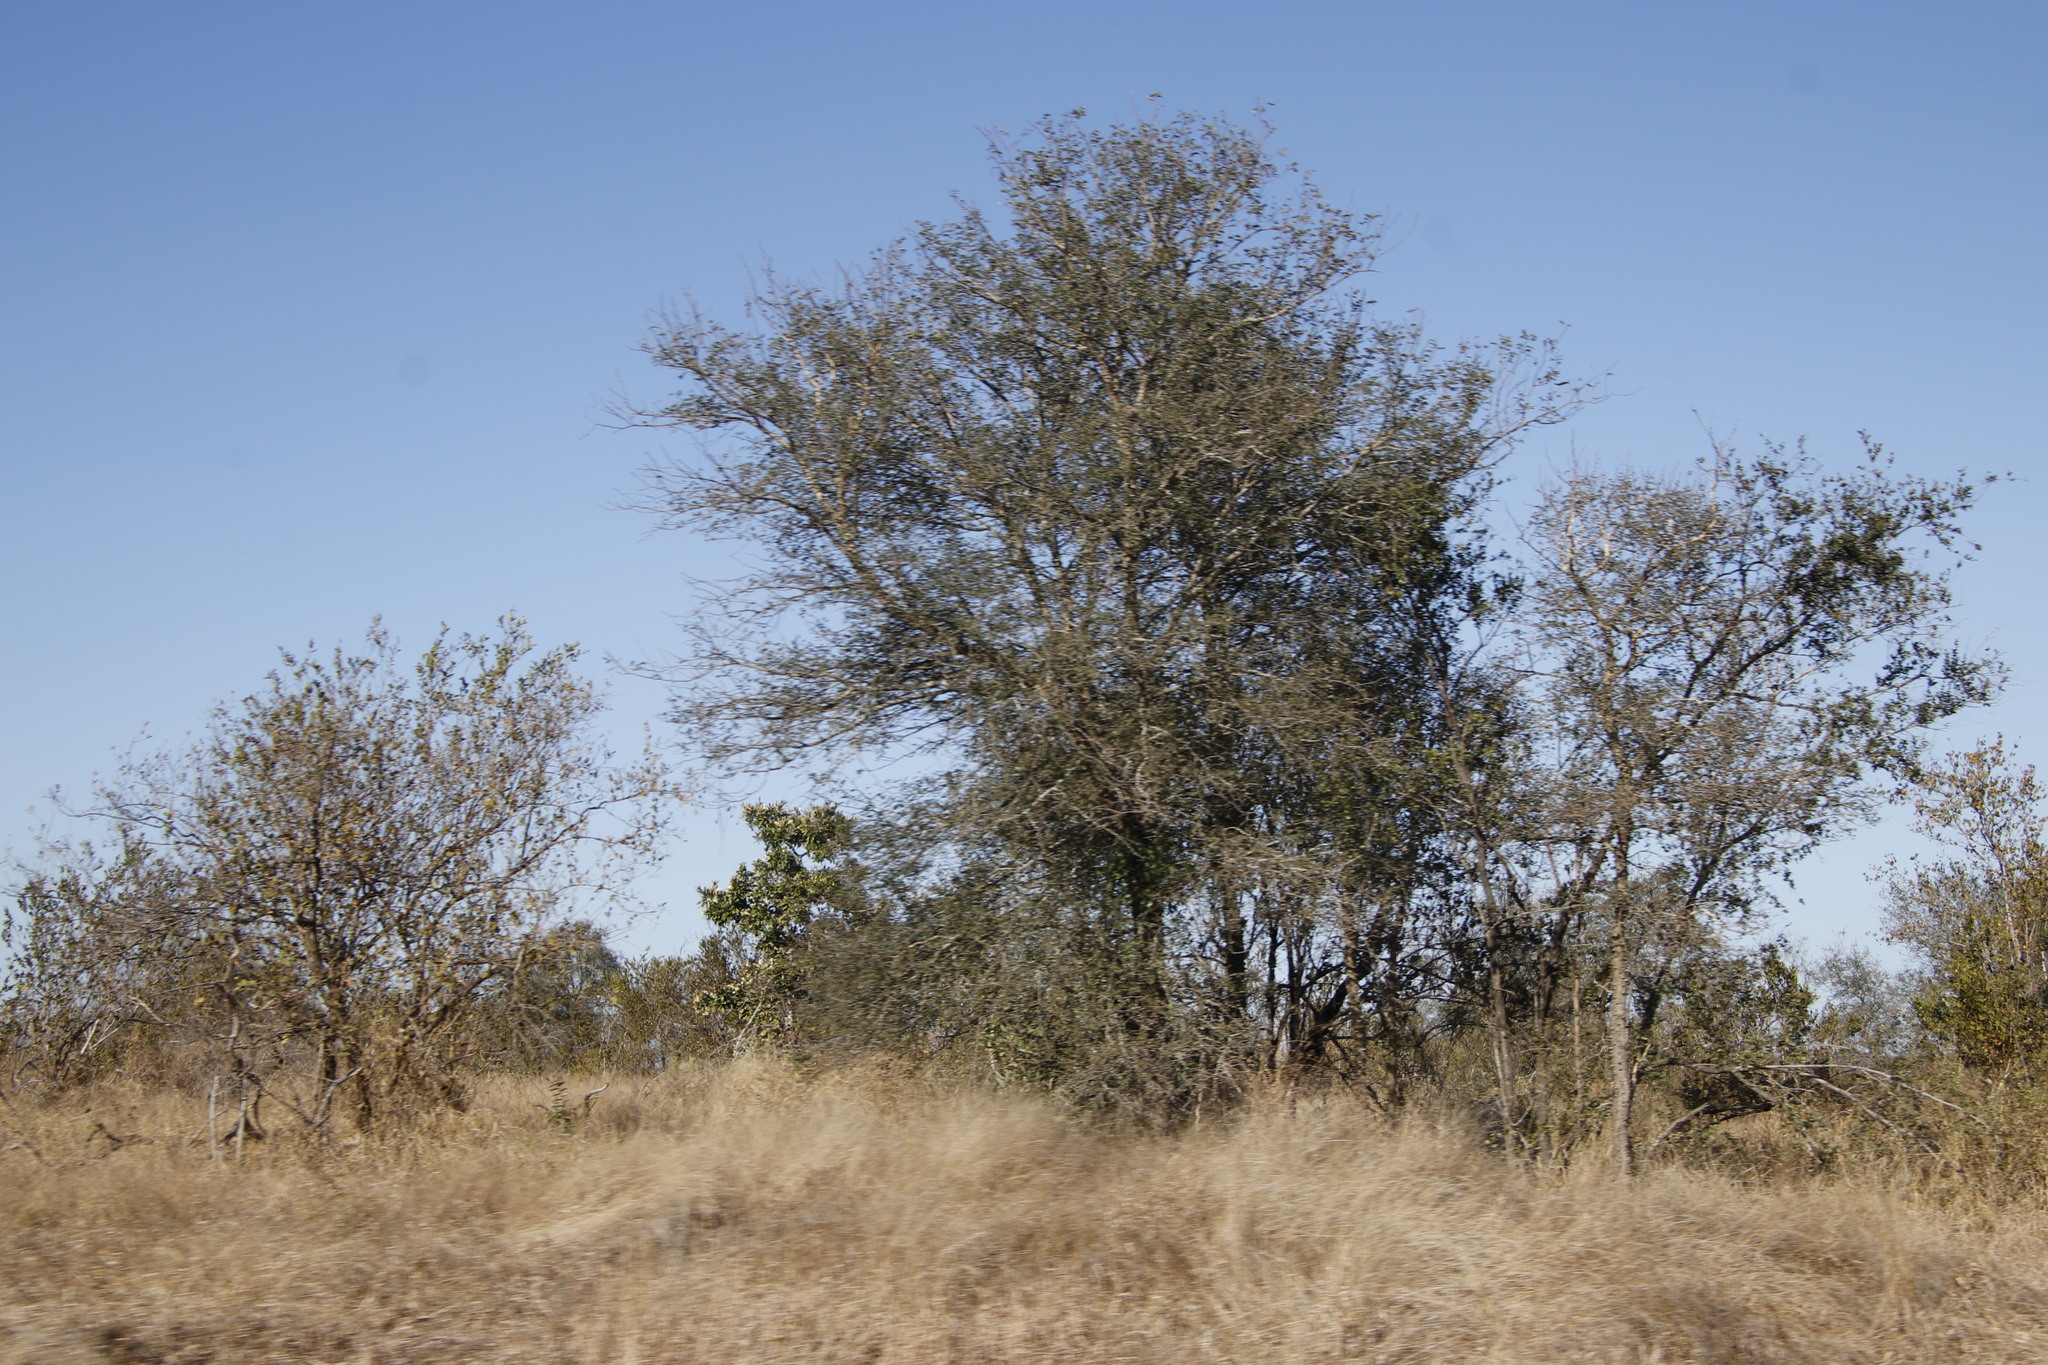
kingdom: Plantae
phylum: Tracheophyta
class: Magnoliopsida
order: Fabales
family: Fabaceae
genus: Senegalia
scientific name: Senegalia nigrescens
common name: Knobthorn
